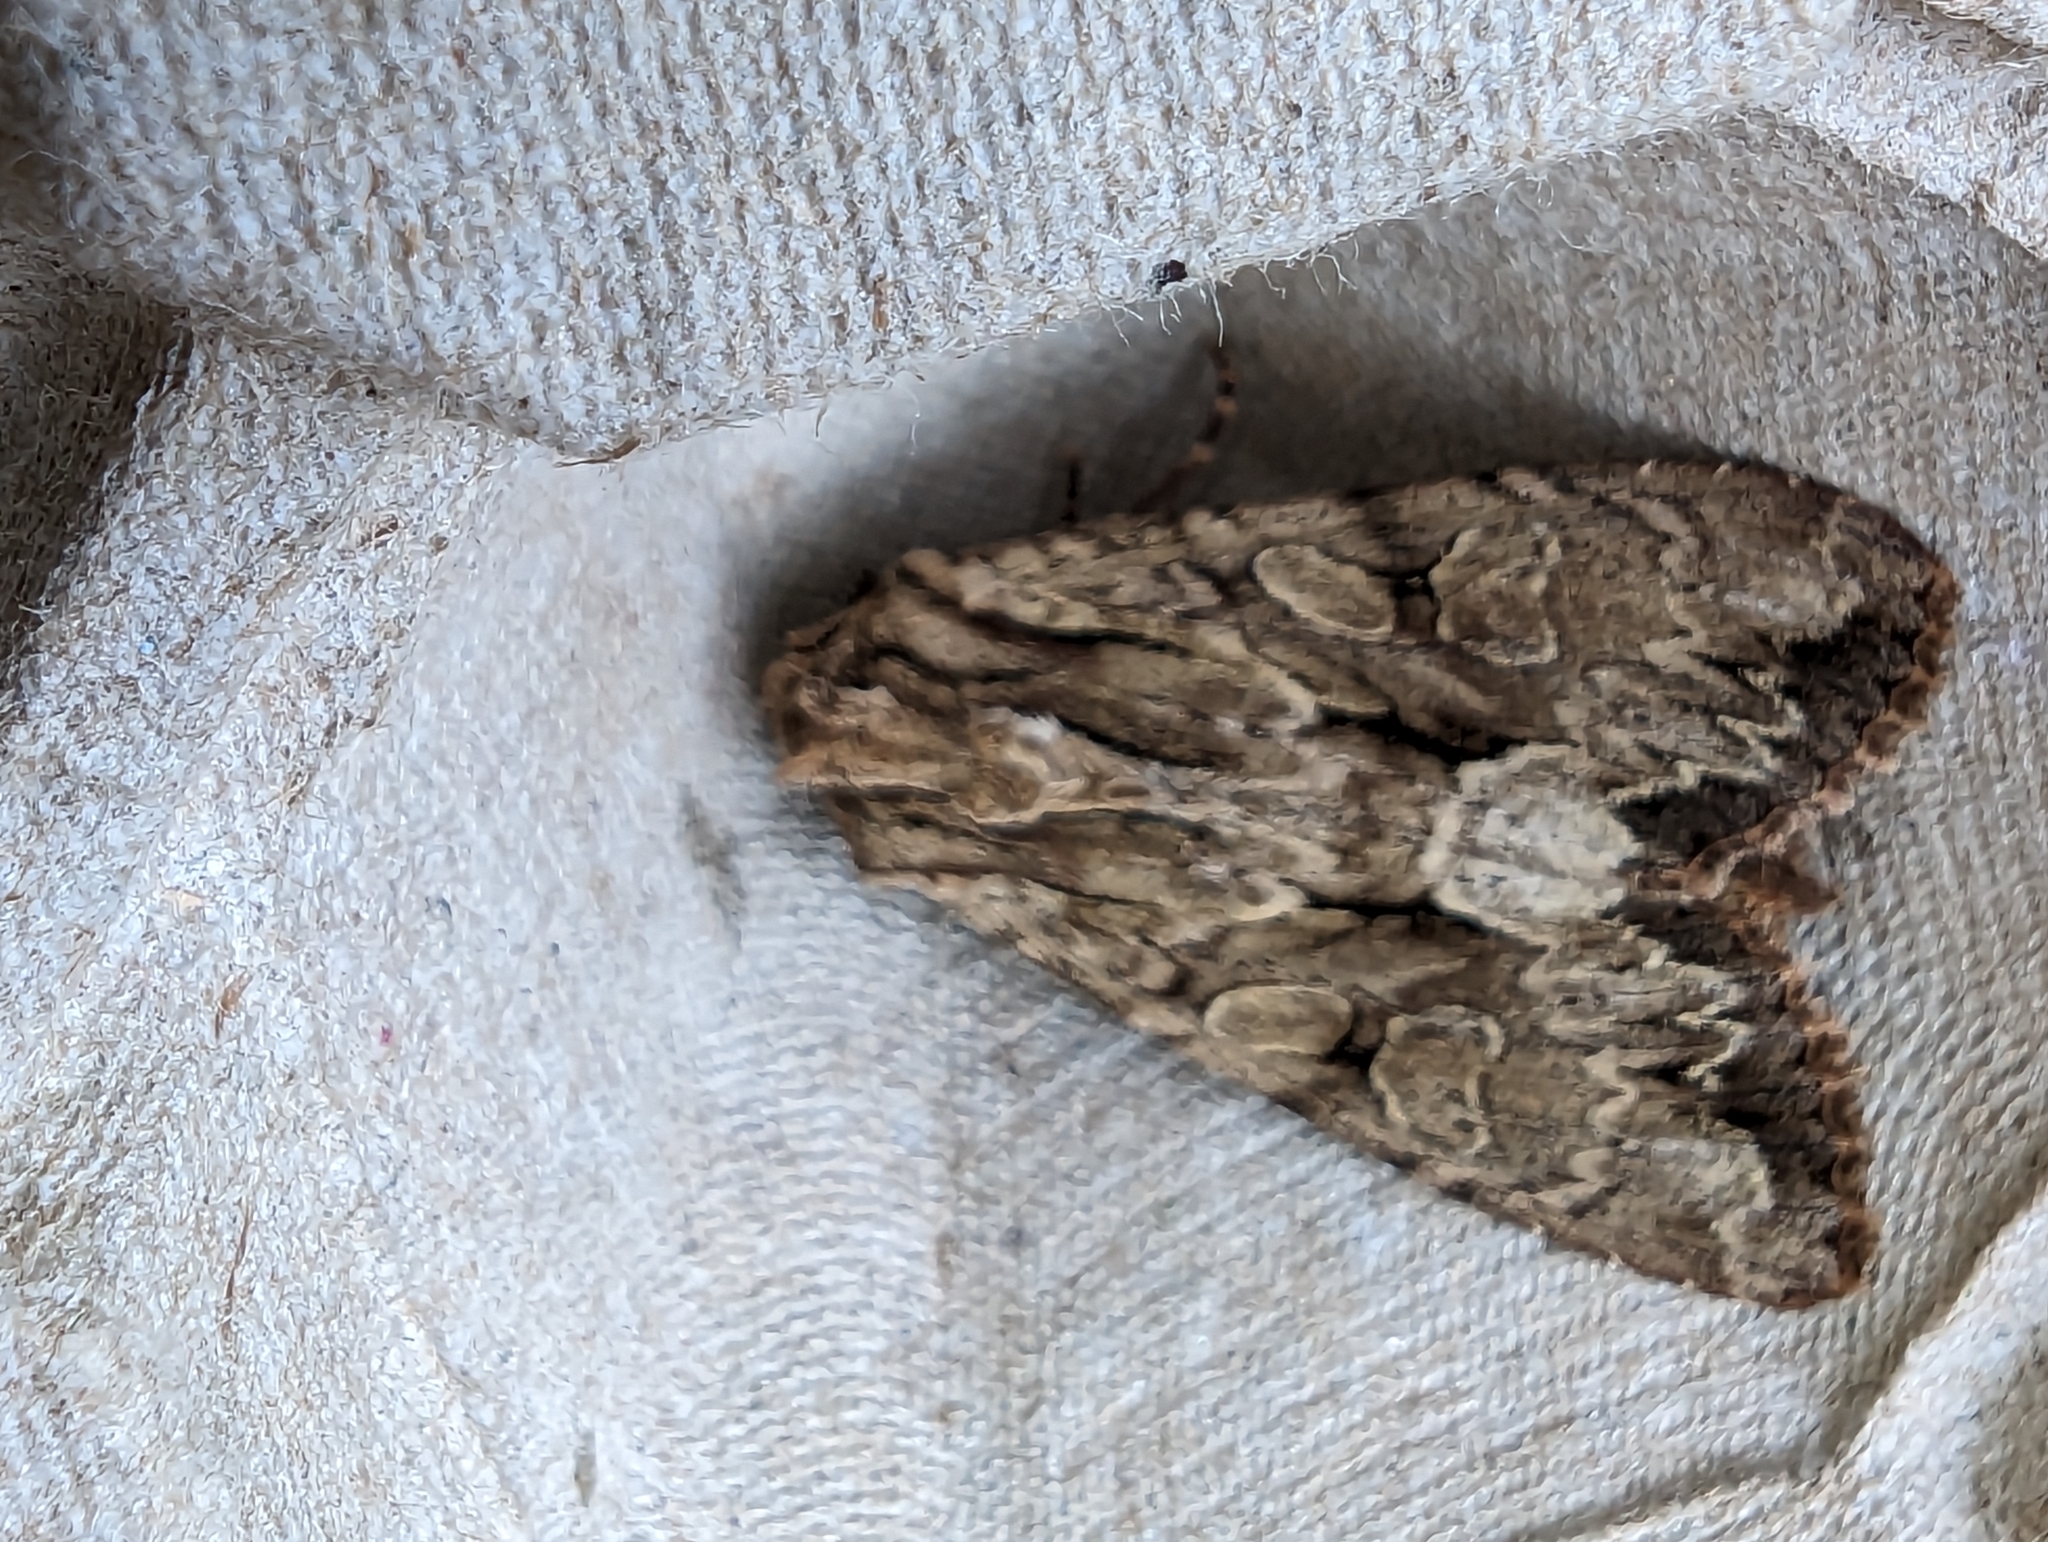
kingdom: Animalia
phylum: Arthropoda
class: Insecta
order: Lepidoptera
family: Noctuidae
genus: Apamea
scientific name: Apamea monoglypha
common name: Dark arches
